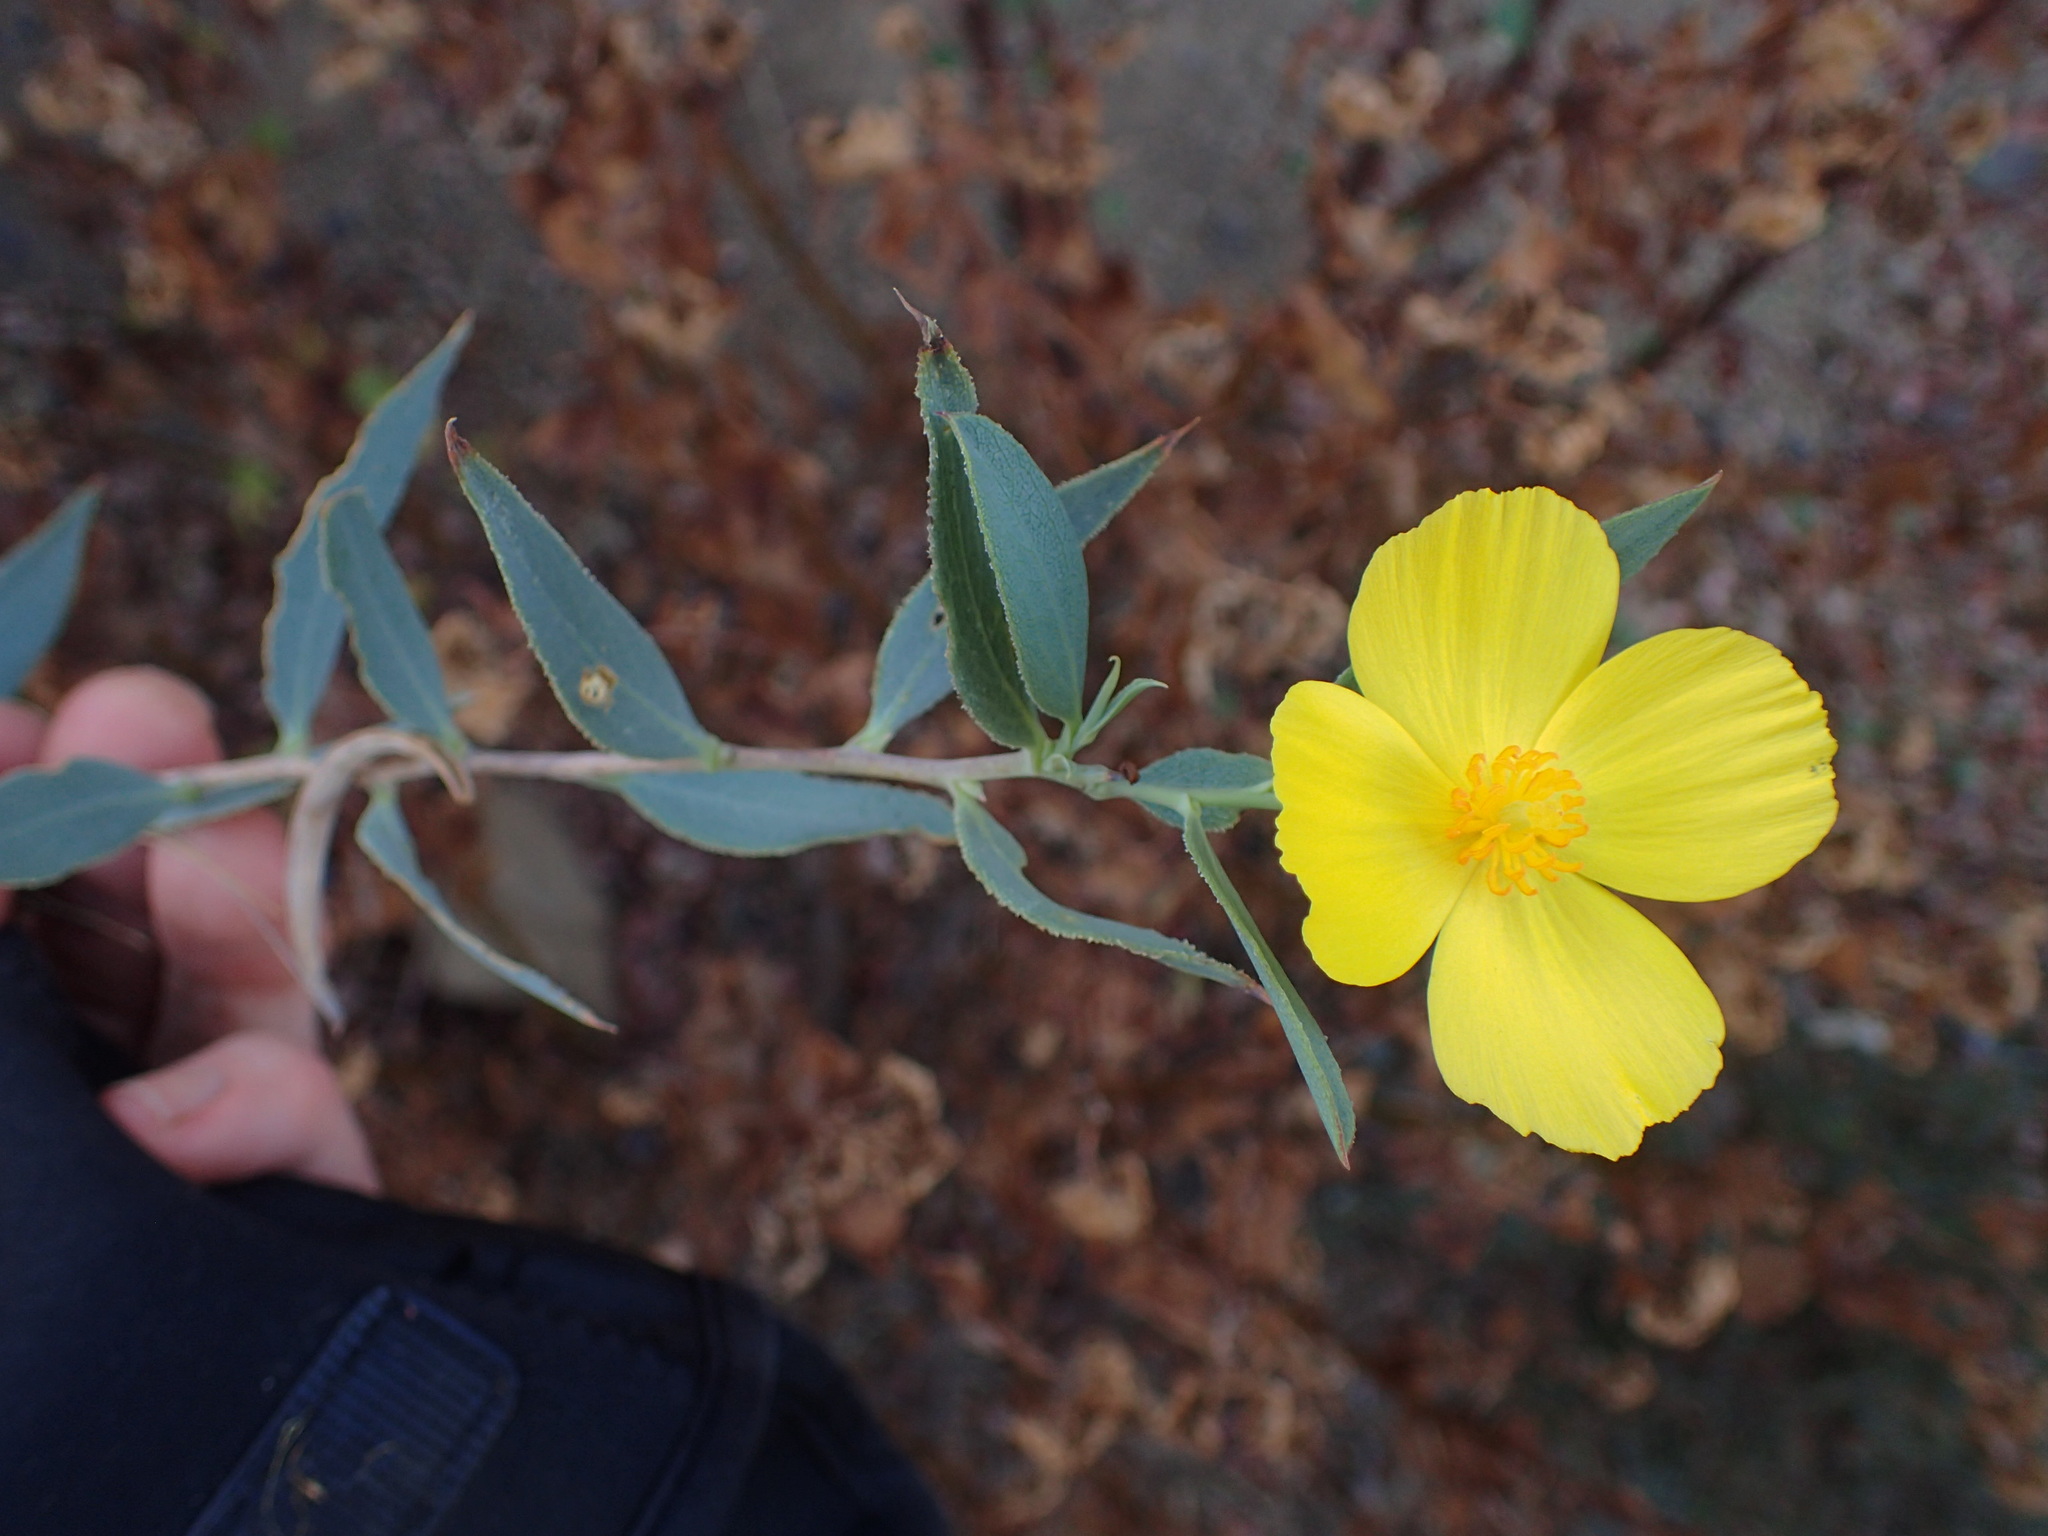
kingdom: Plantae
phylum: Tracheophyta
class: Magnoliopsida
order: Ranunculales
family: Papaveraceae
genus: Dendromecon
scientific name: Dendromecon rigida
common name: Tree poppy
